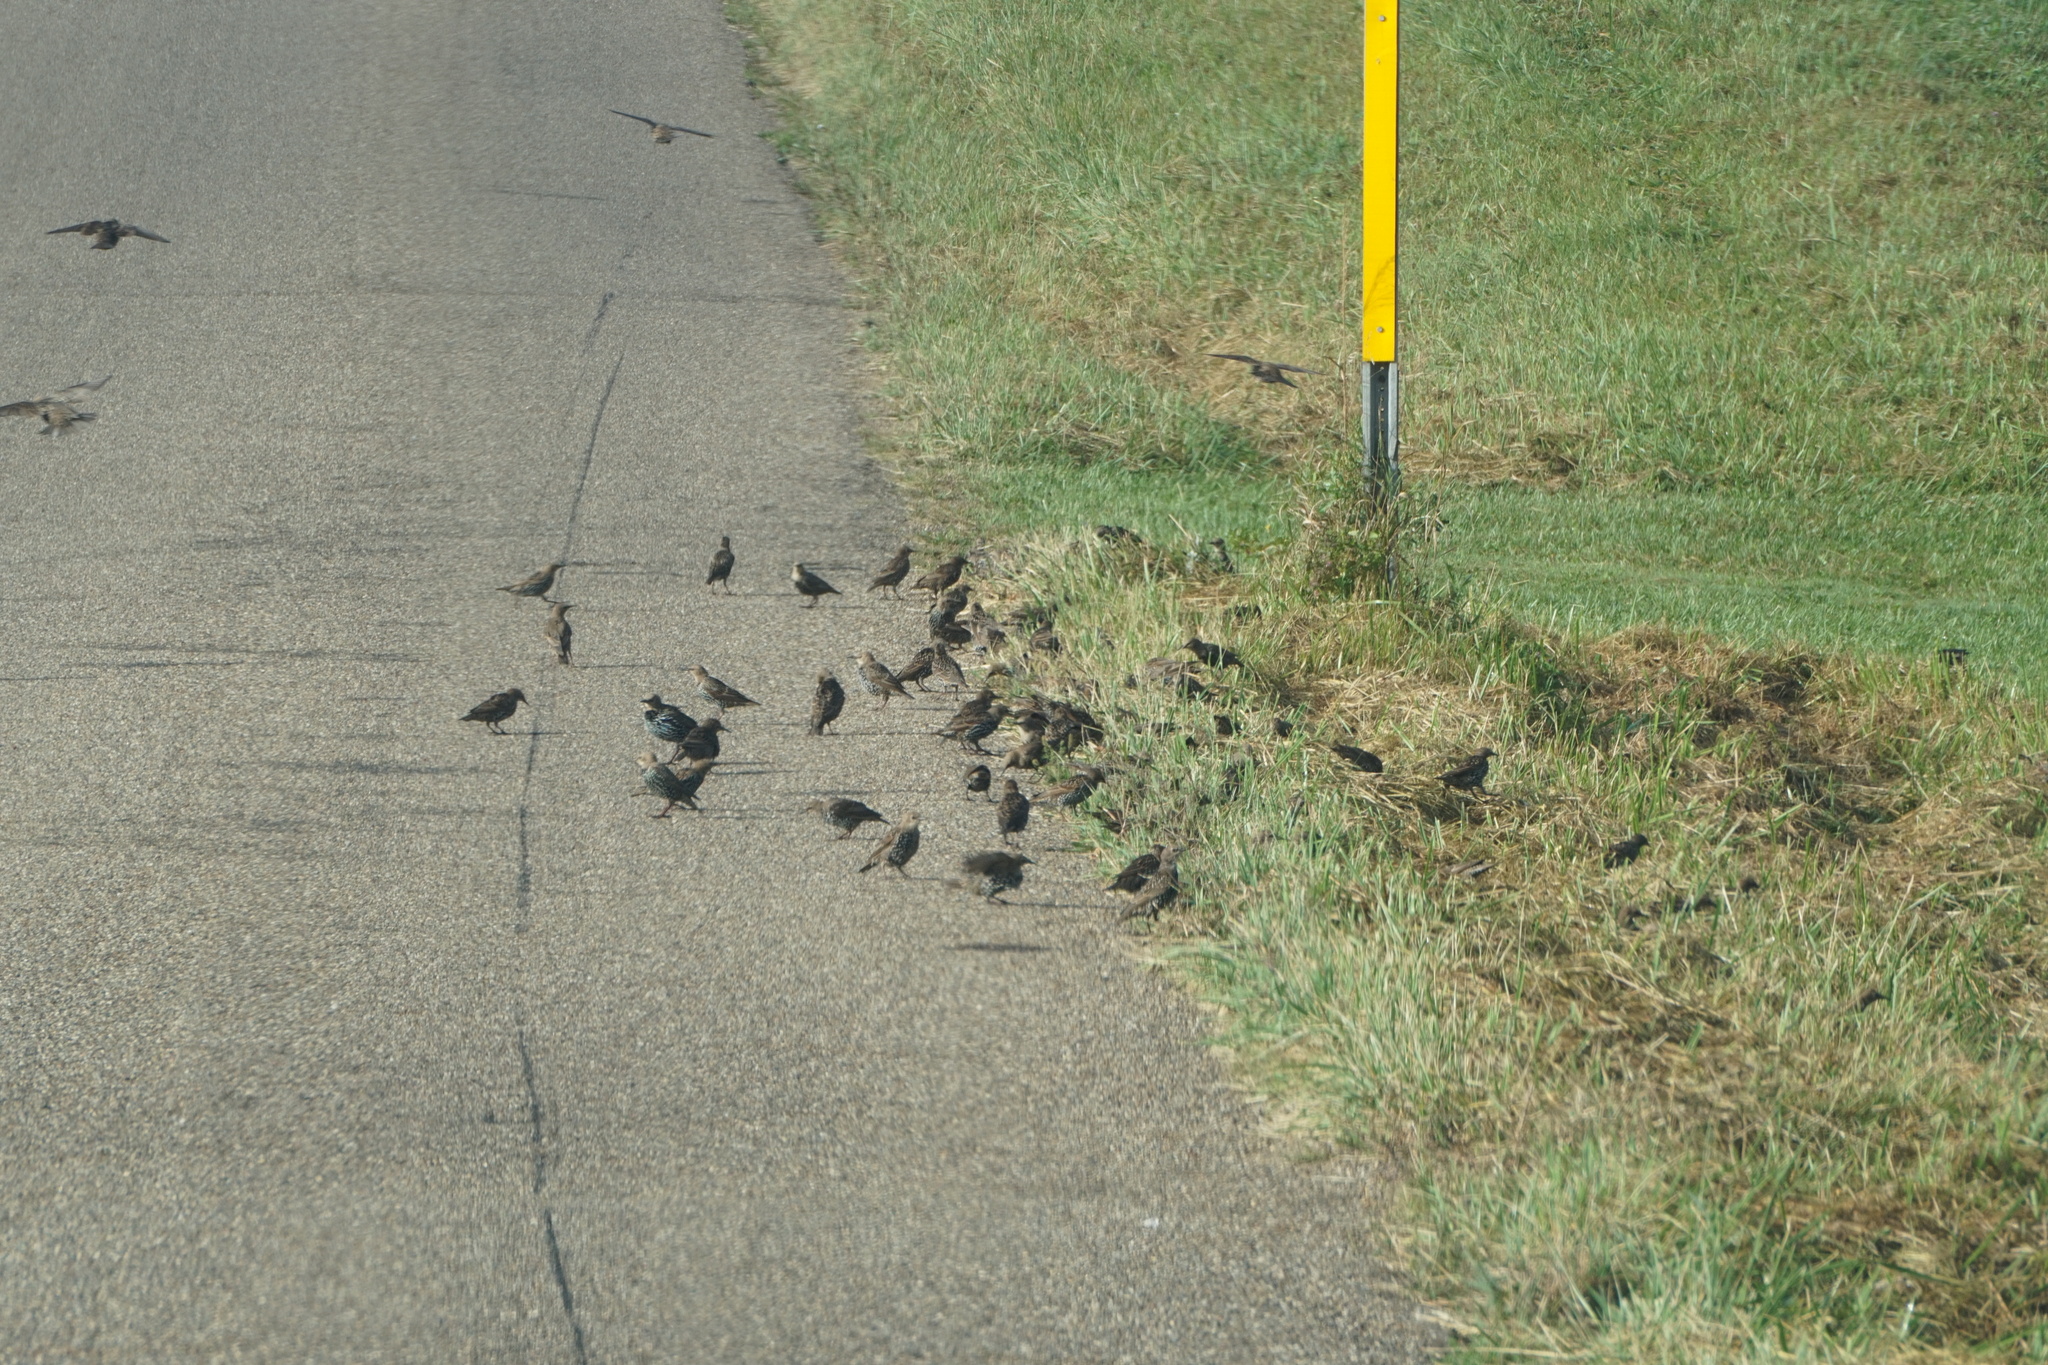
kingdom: Animalia
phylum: Chordata
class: Aves
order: Passeriformes
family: Sturnidae
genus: Sturnus
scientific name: Sturnus vulgaris
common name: Common starling
